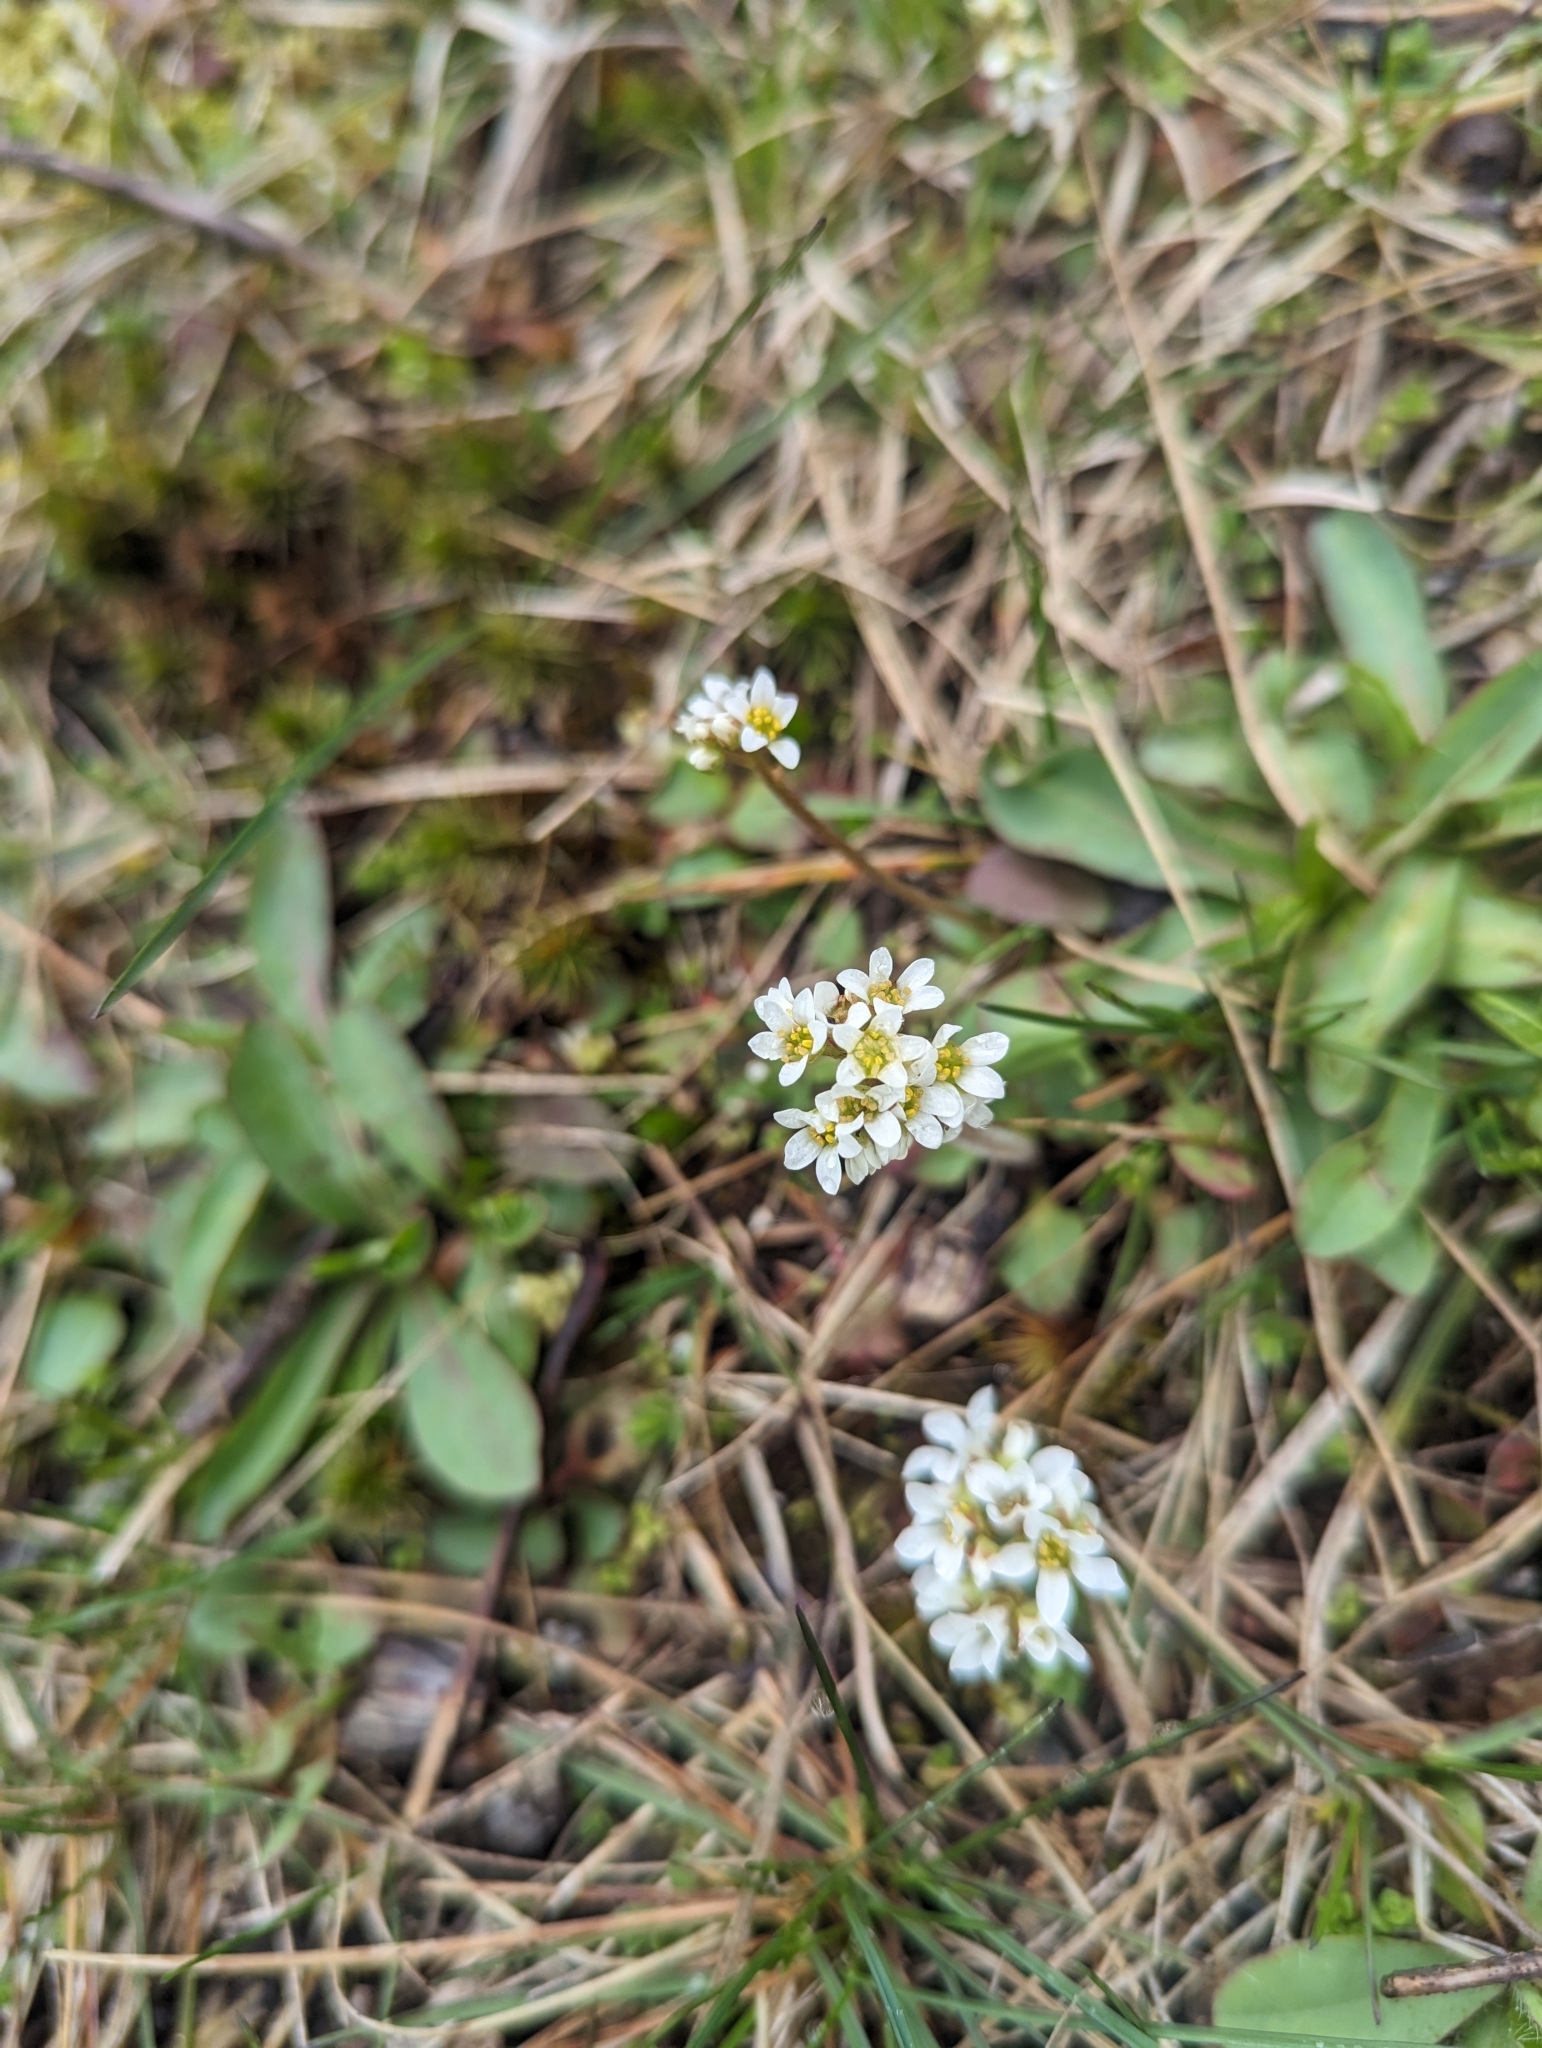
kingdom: Plantae
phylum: Tracheophyta
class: Magnoliopsida
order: Saxifragales
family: Saxifragaceae
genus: Micranthes
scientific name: Micranthes virginiensis
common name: Early saxifrage
